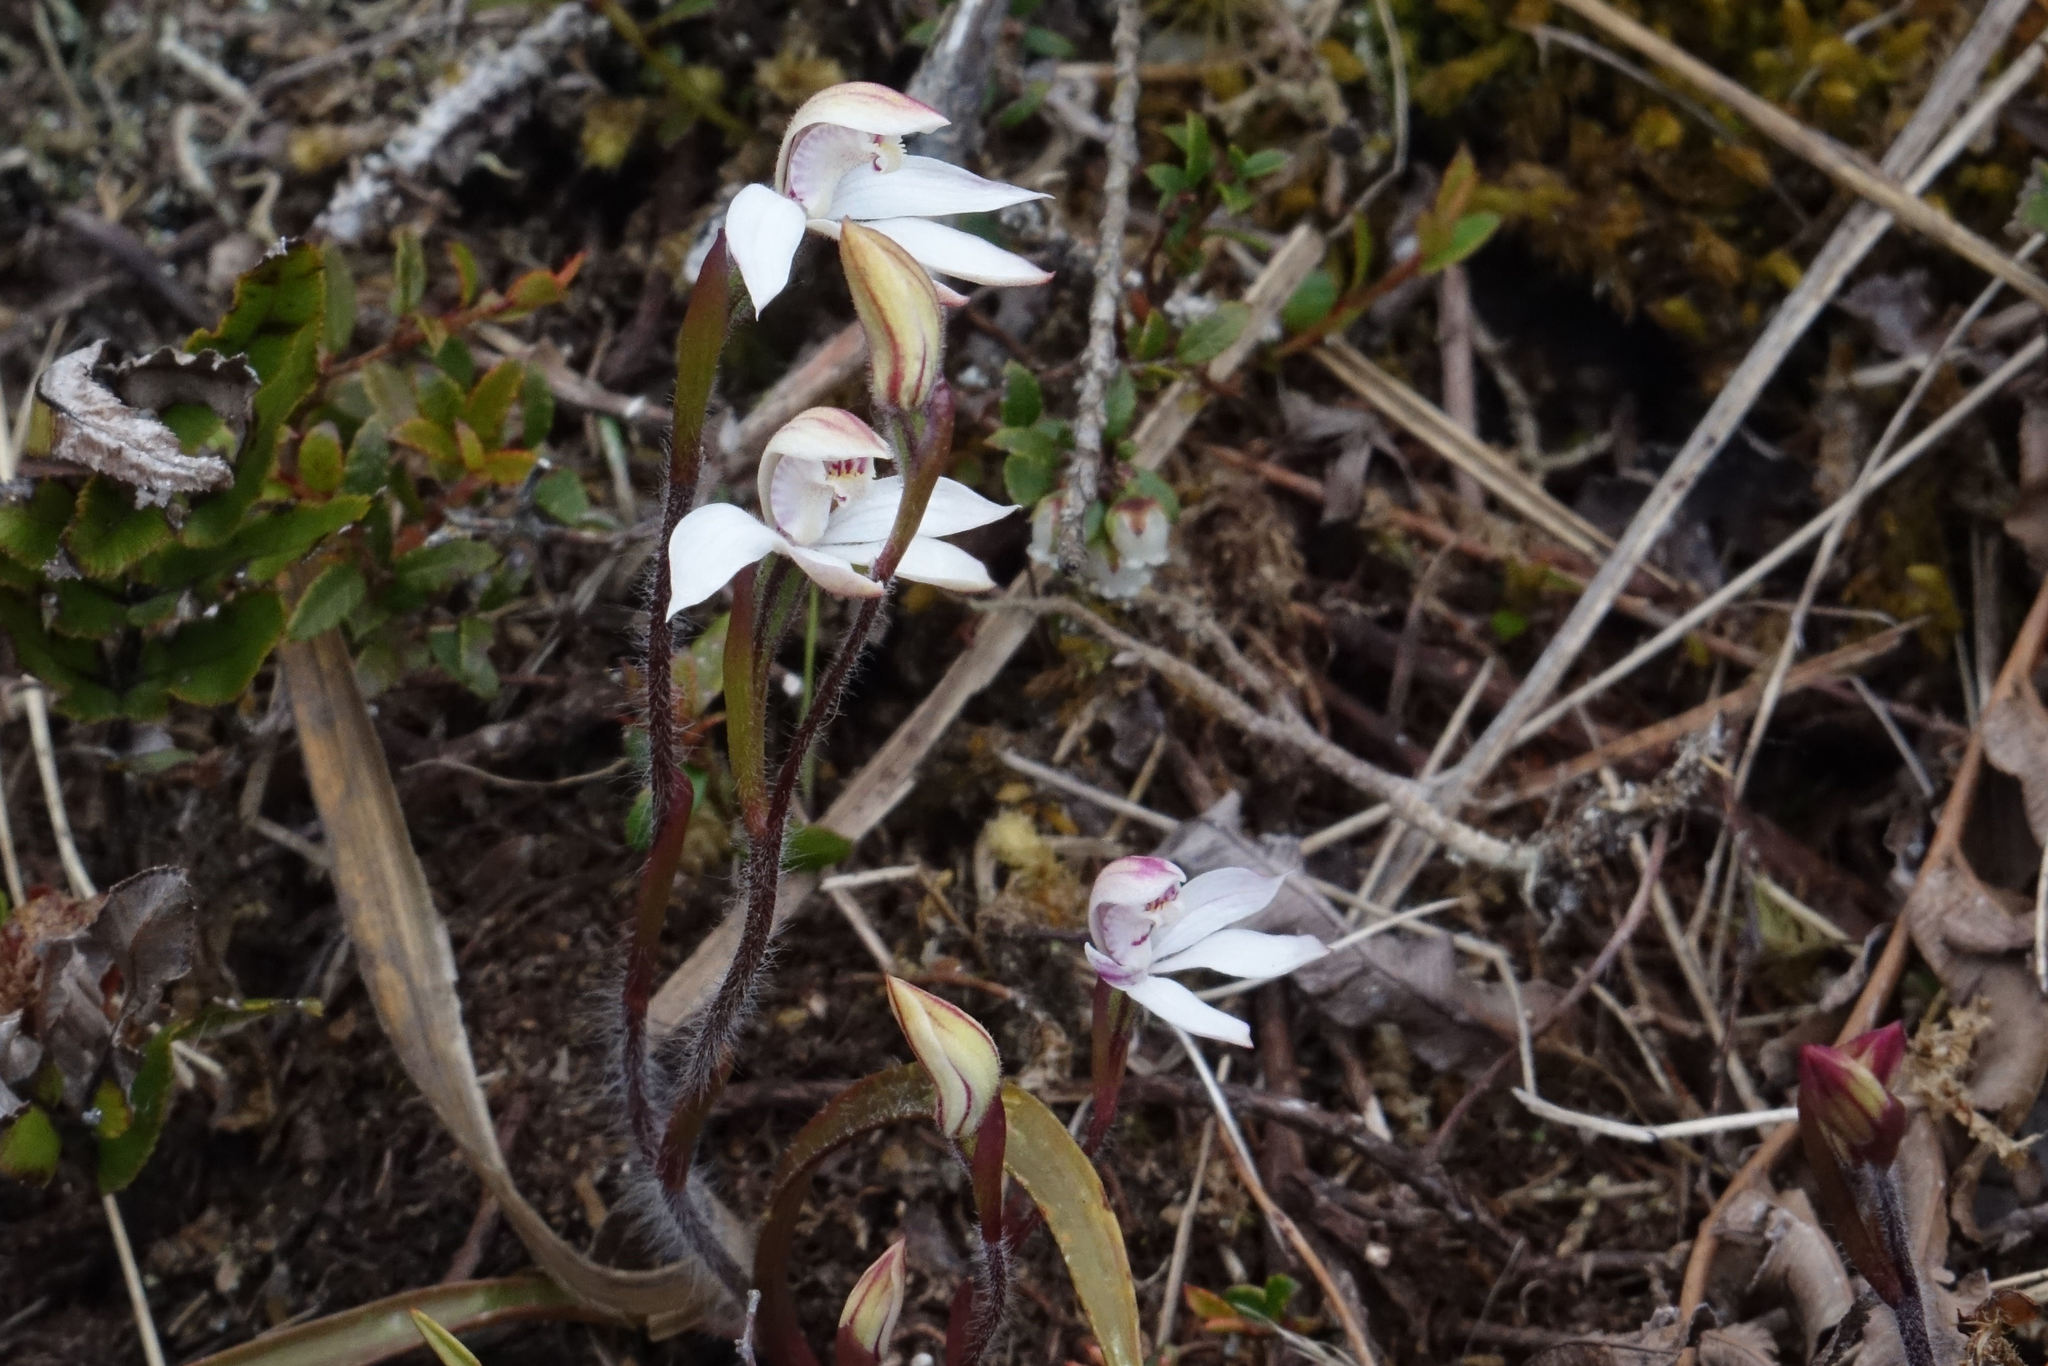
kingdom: Plantae
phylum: Tracheophyta
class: Liliopsida
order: Asparagales
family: Orchidaceae
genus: Caladenia
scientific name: Caladenia lyallii
